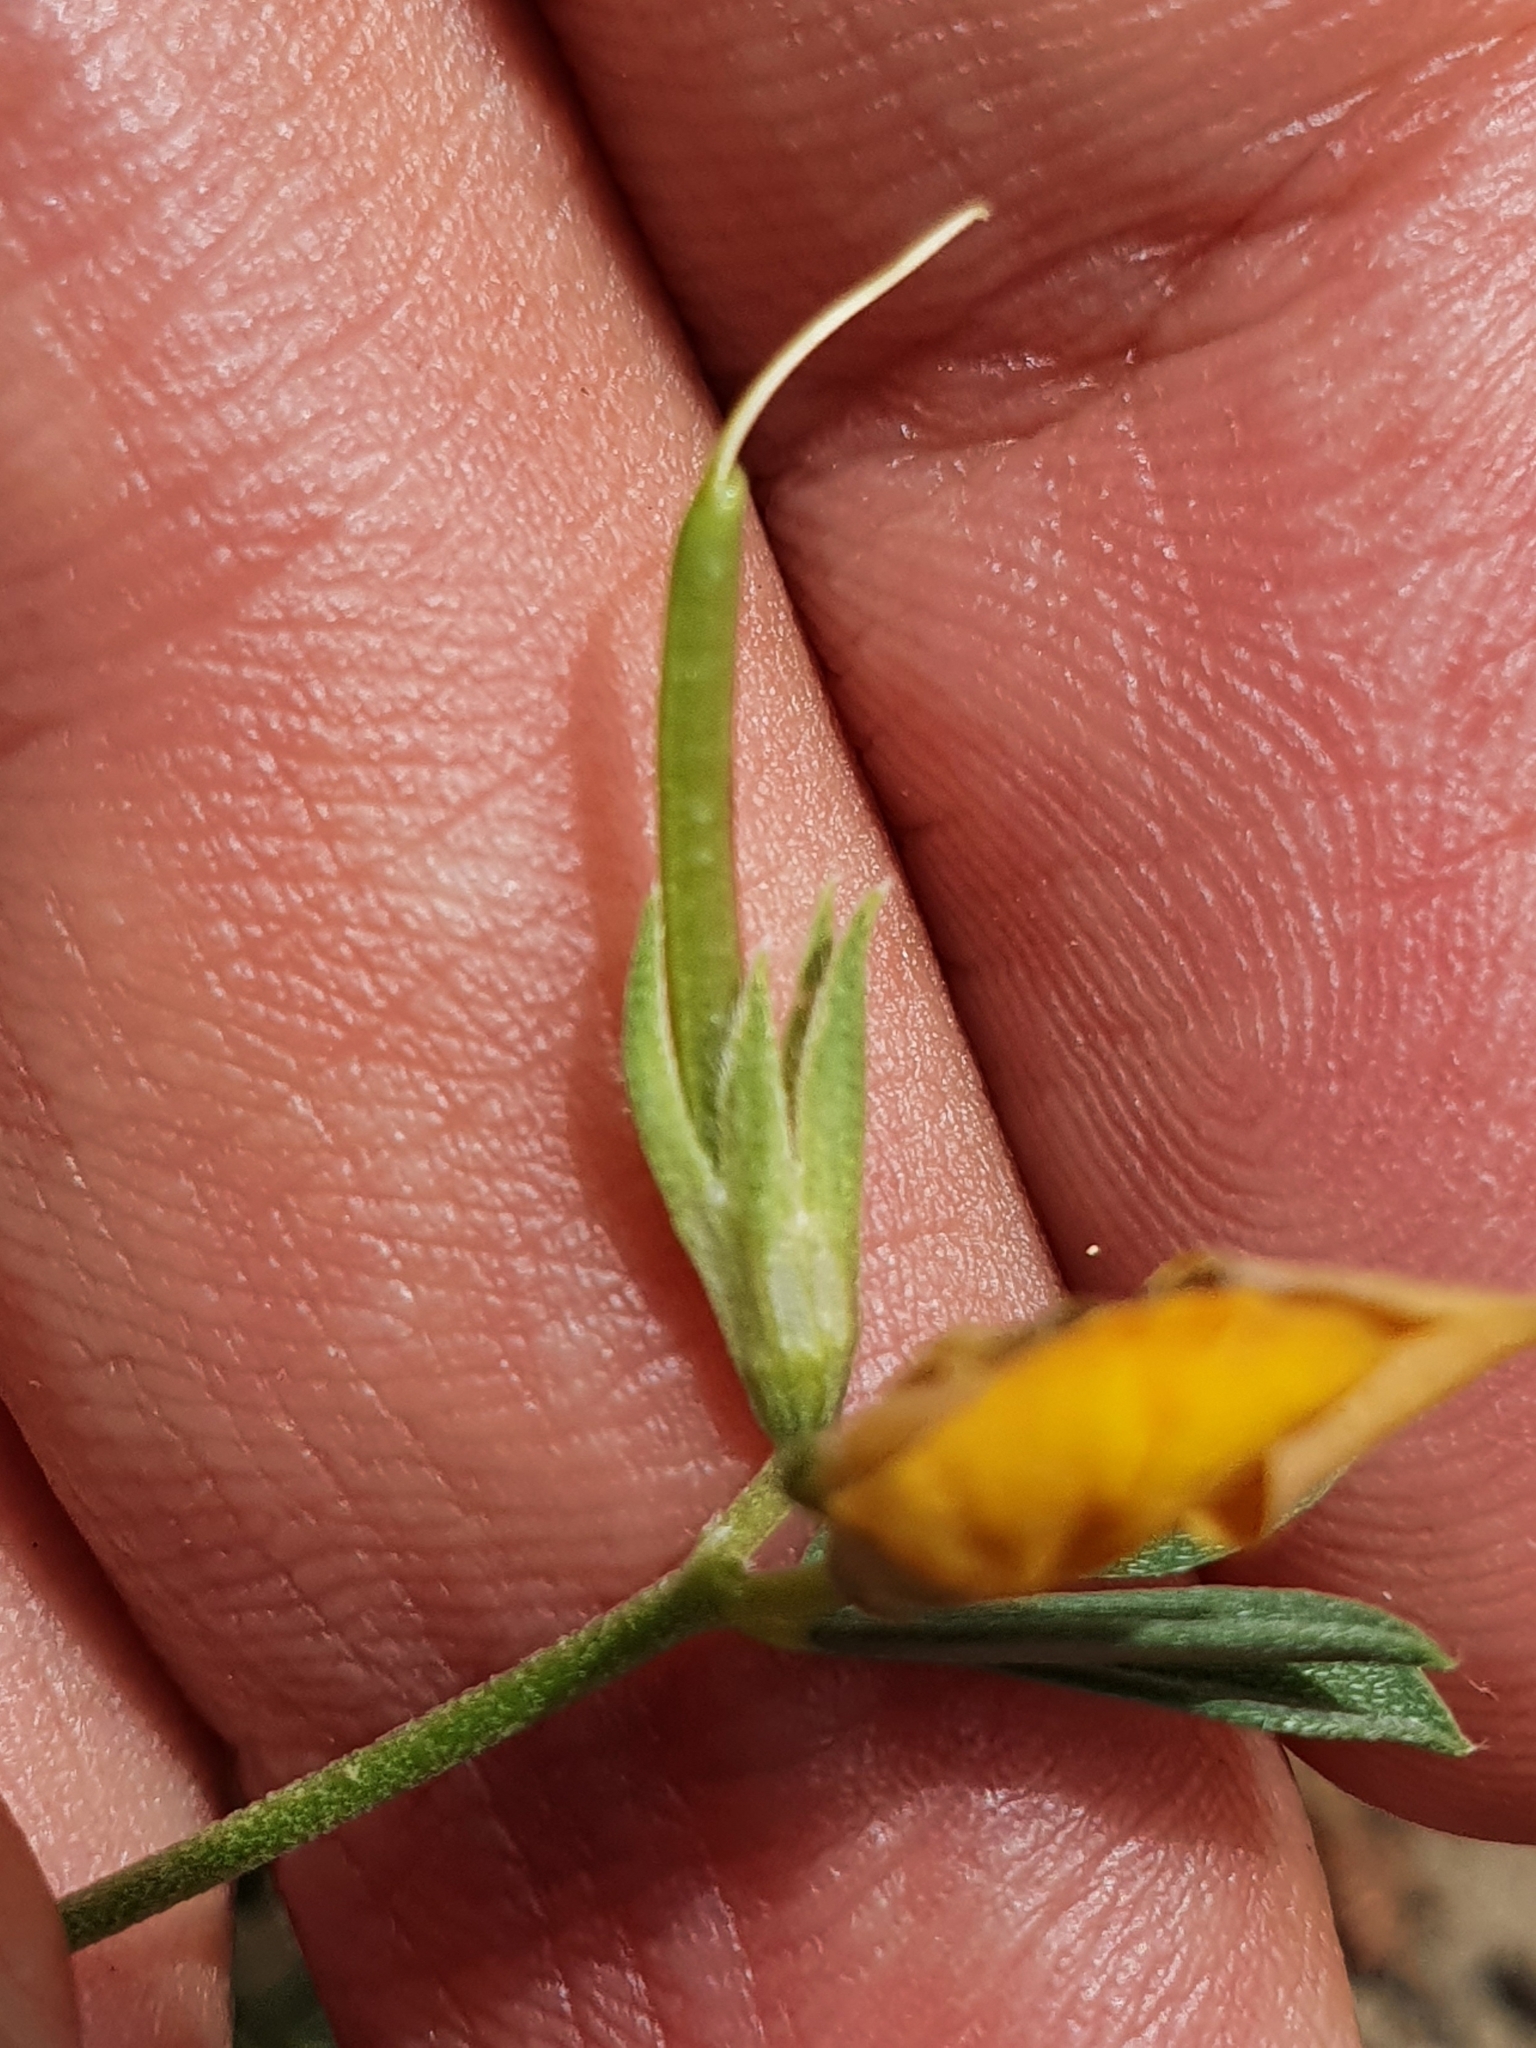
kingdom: Plantae
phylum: Tracheophyta
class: Magnoliopsida
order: Fabales
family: Fabaceae
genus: Lotus
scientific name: Lotus longisiliquosus
